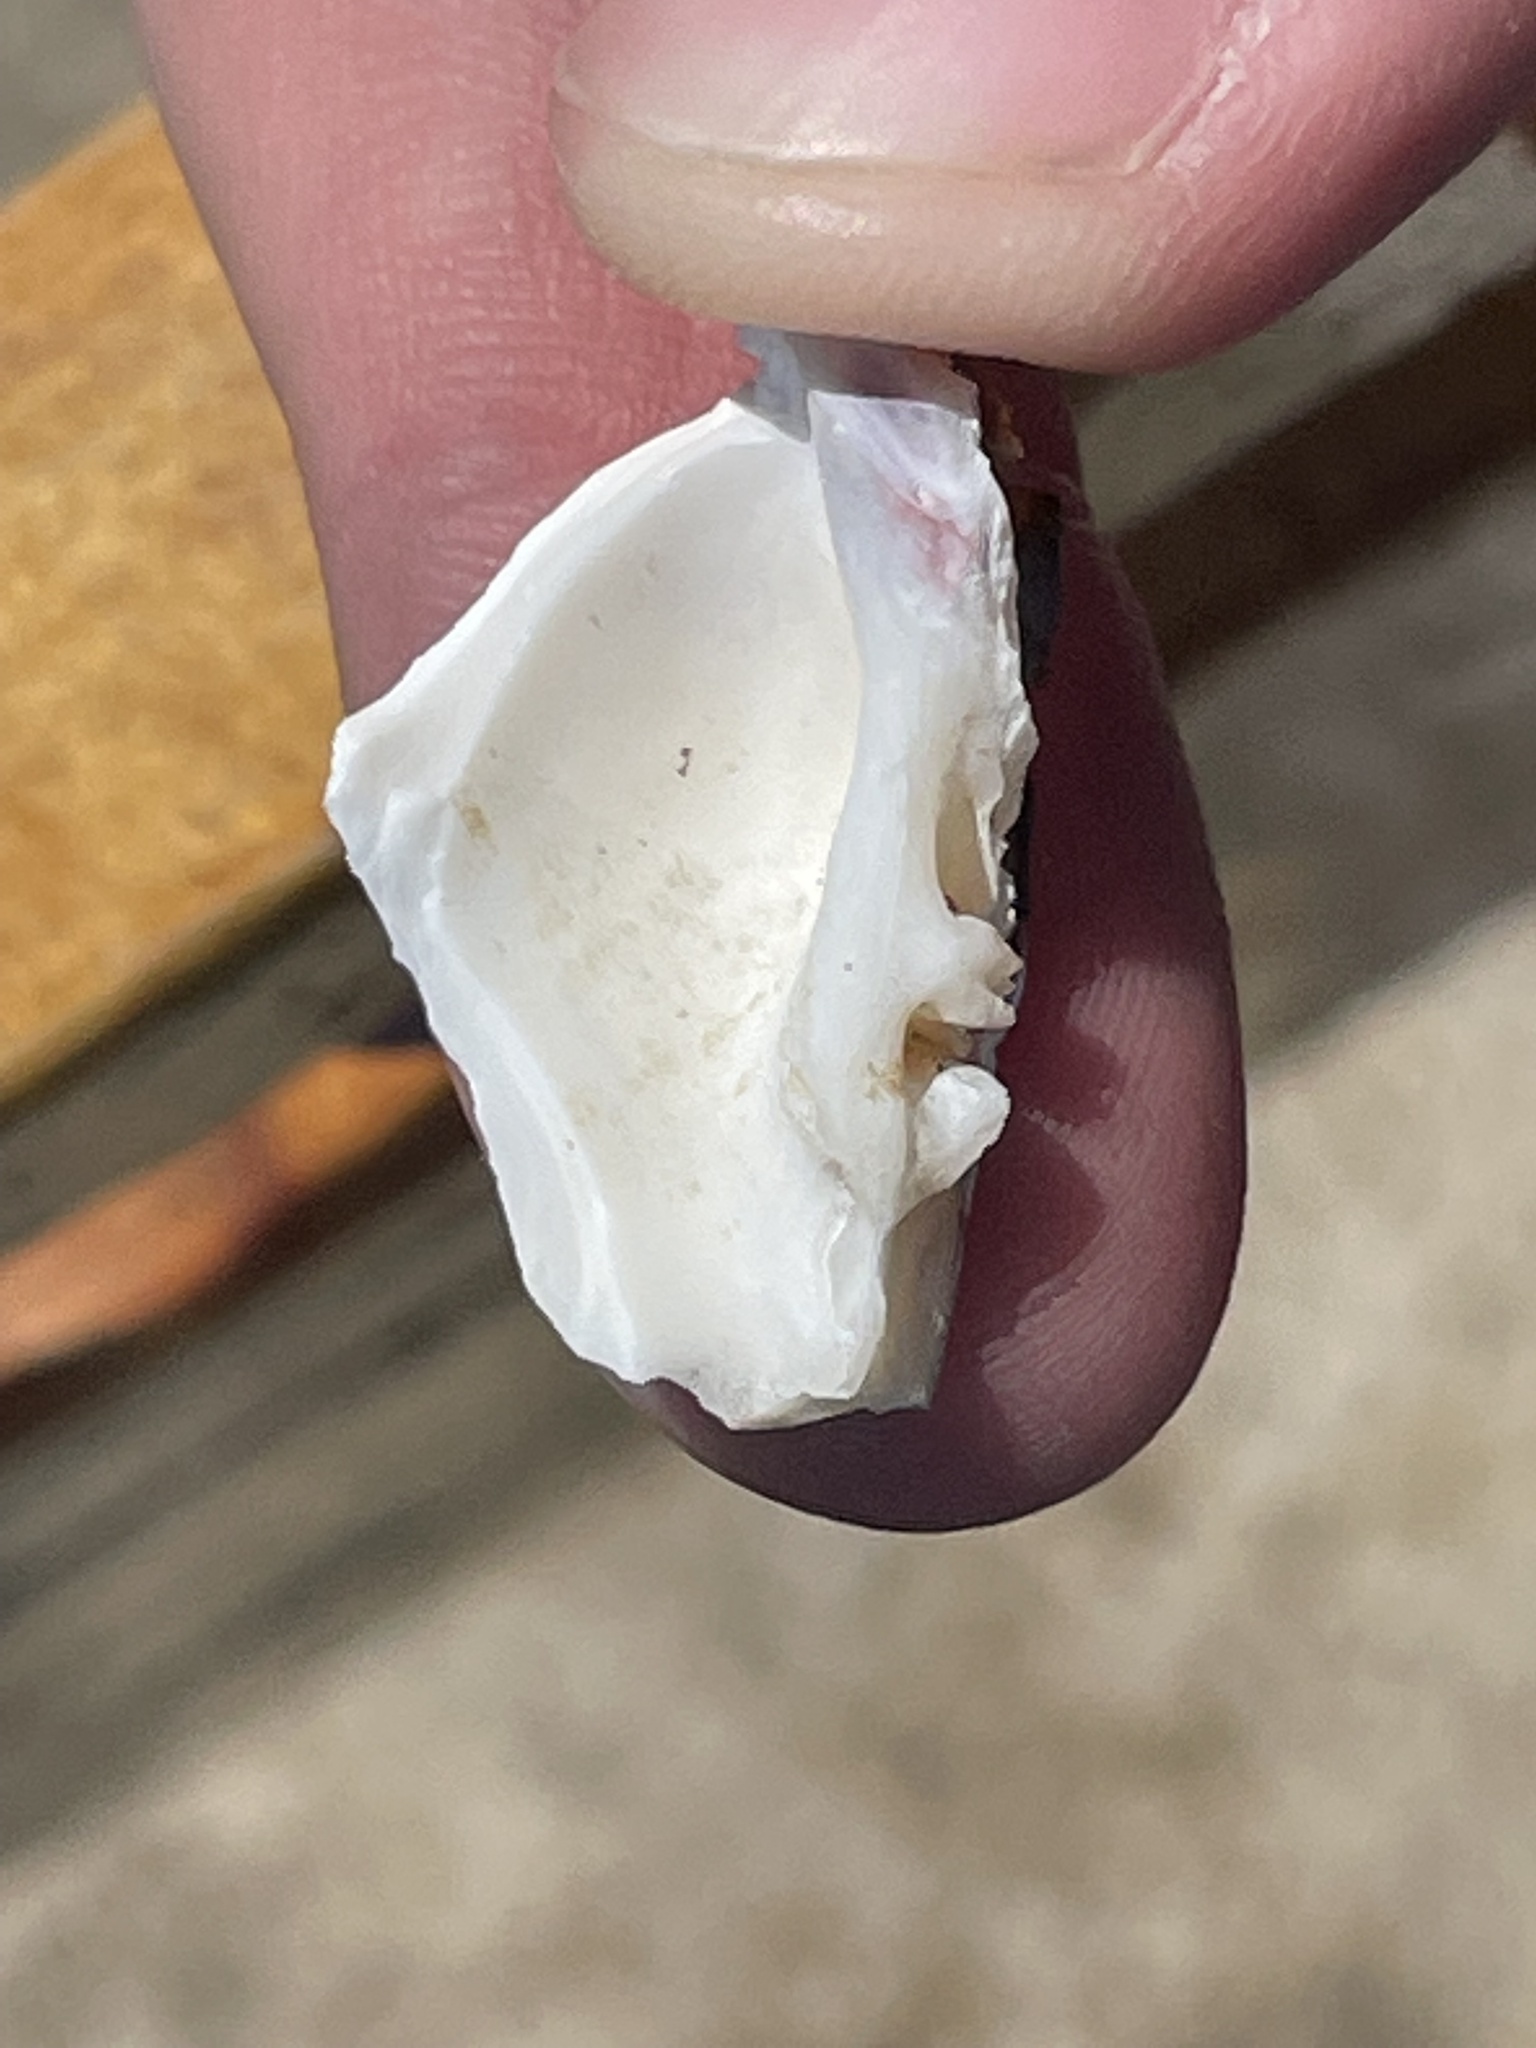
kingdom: Animalia
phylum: Mollusca
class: Bivalvia
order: Venerida
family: Veneridae
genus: Mercenaria
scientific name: Mercenaria mercenaria
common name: American hard-shelled clam
